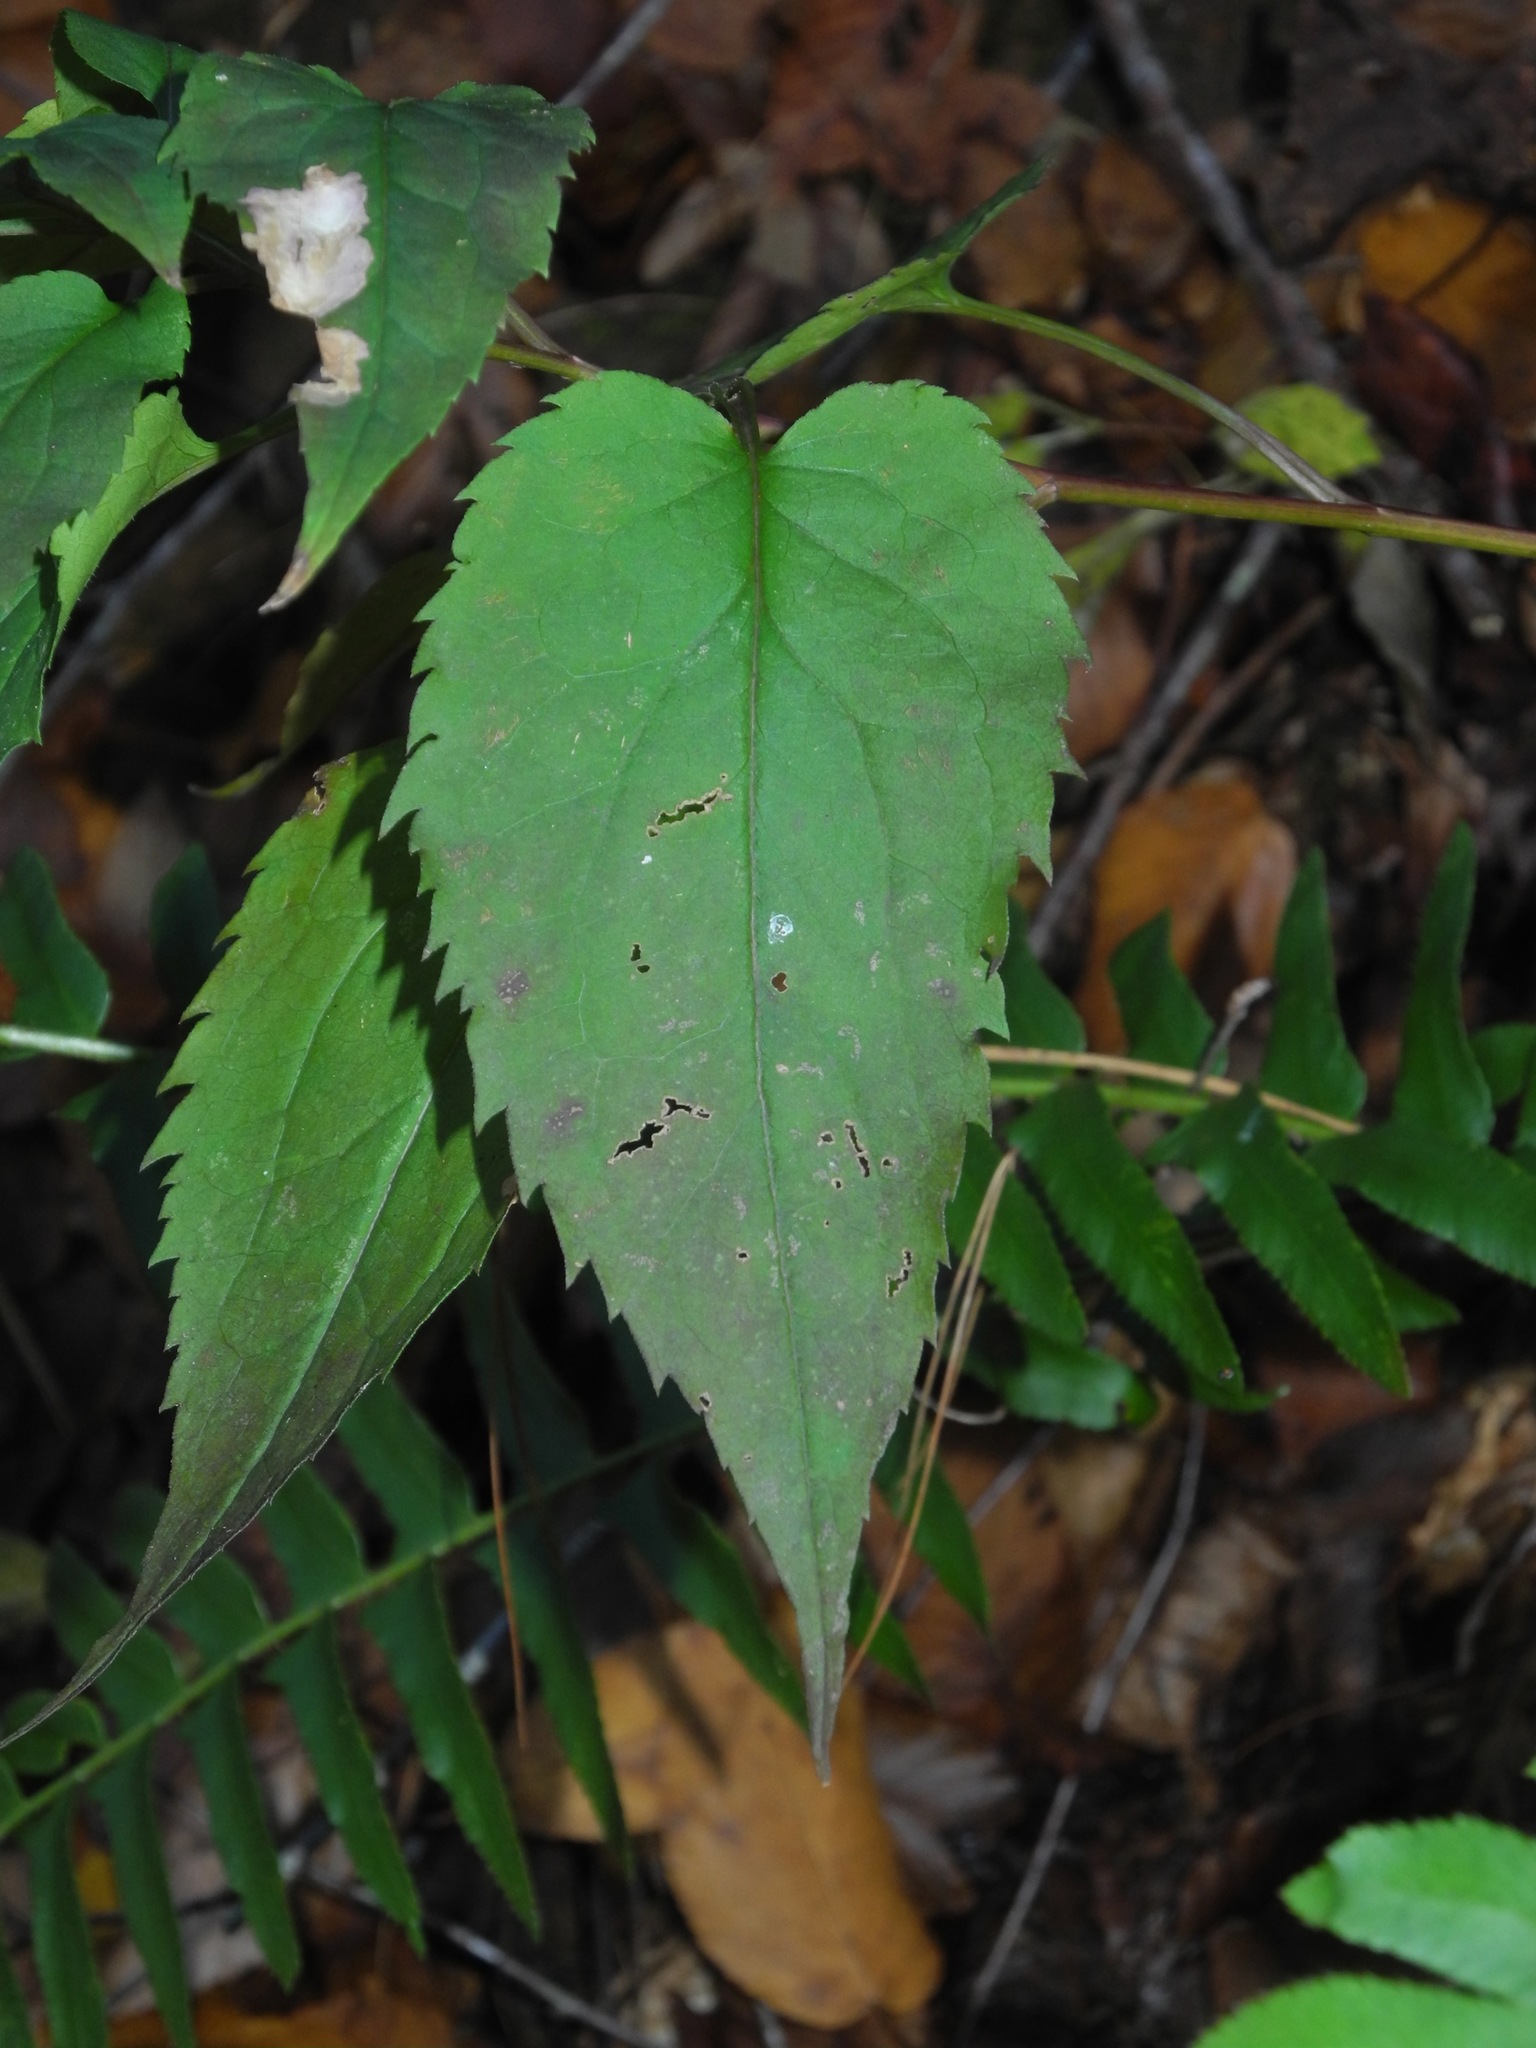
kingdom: Plantae
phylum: Tracheophyta
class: Magnoliopsida
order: Asterales
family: Asteraceae
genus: Symphyotrichum
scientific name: Symphyotrichum cordifolium
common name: Beeweed
